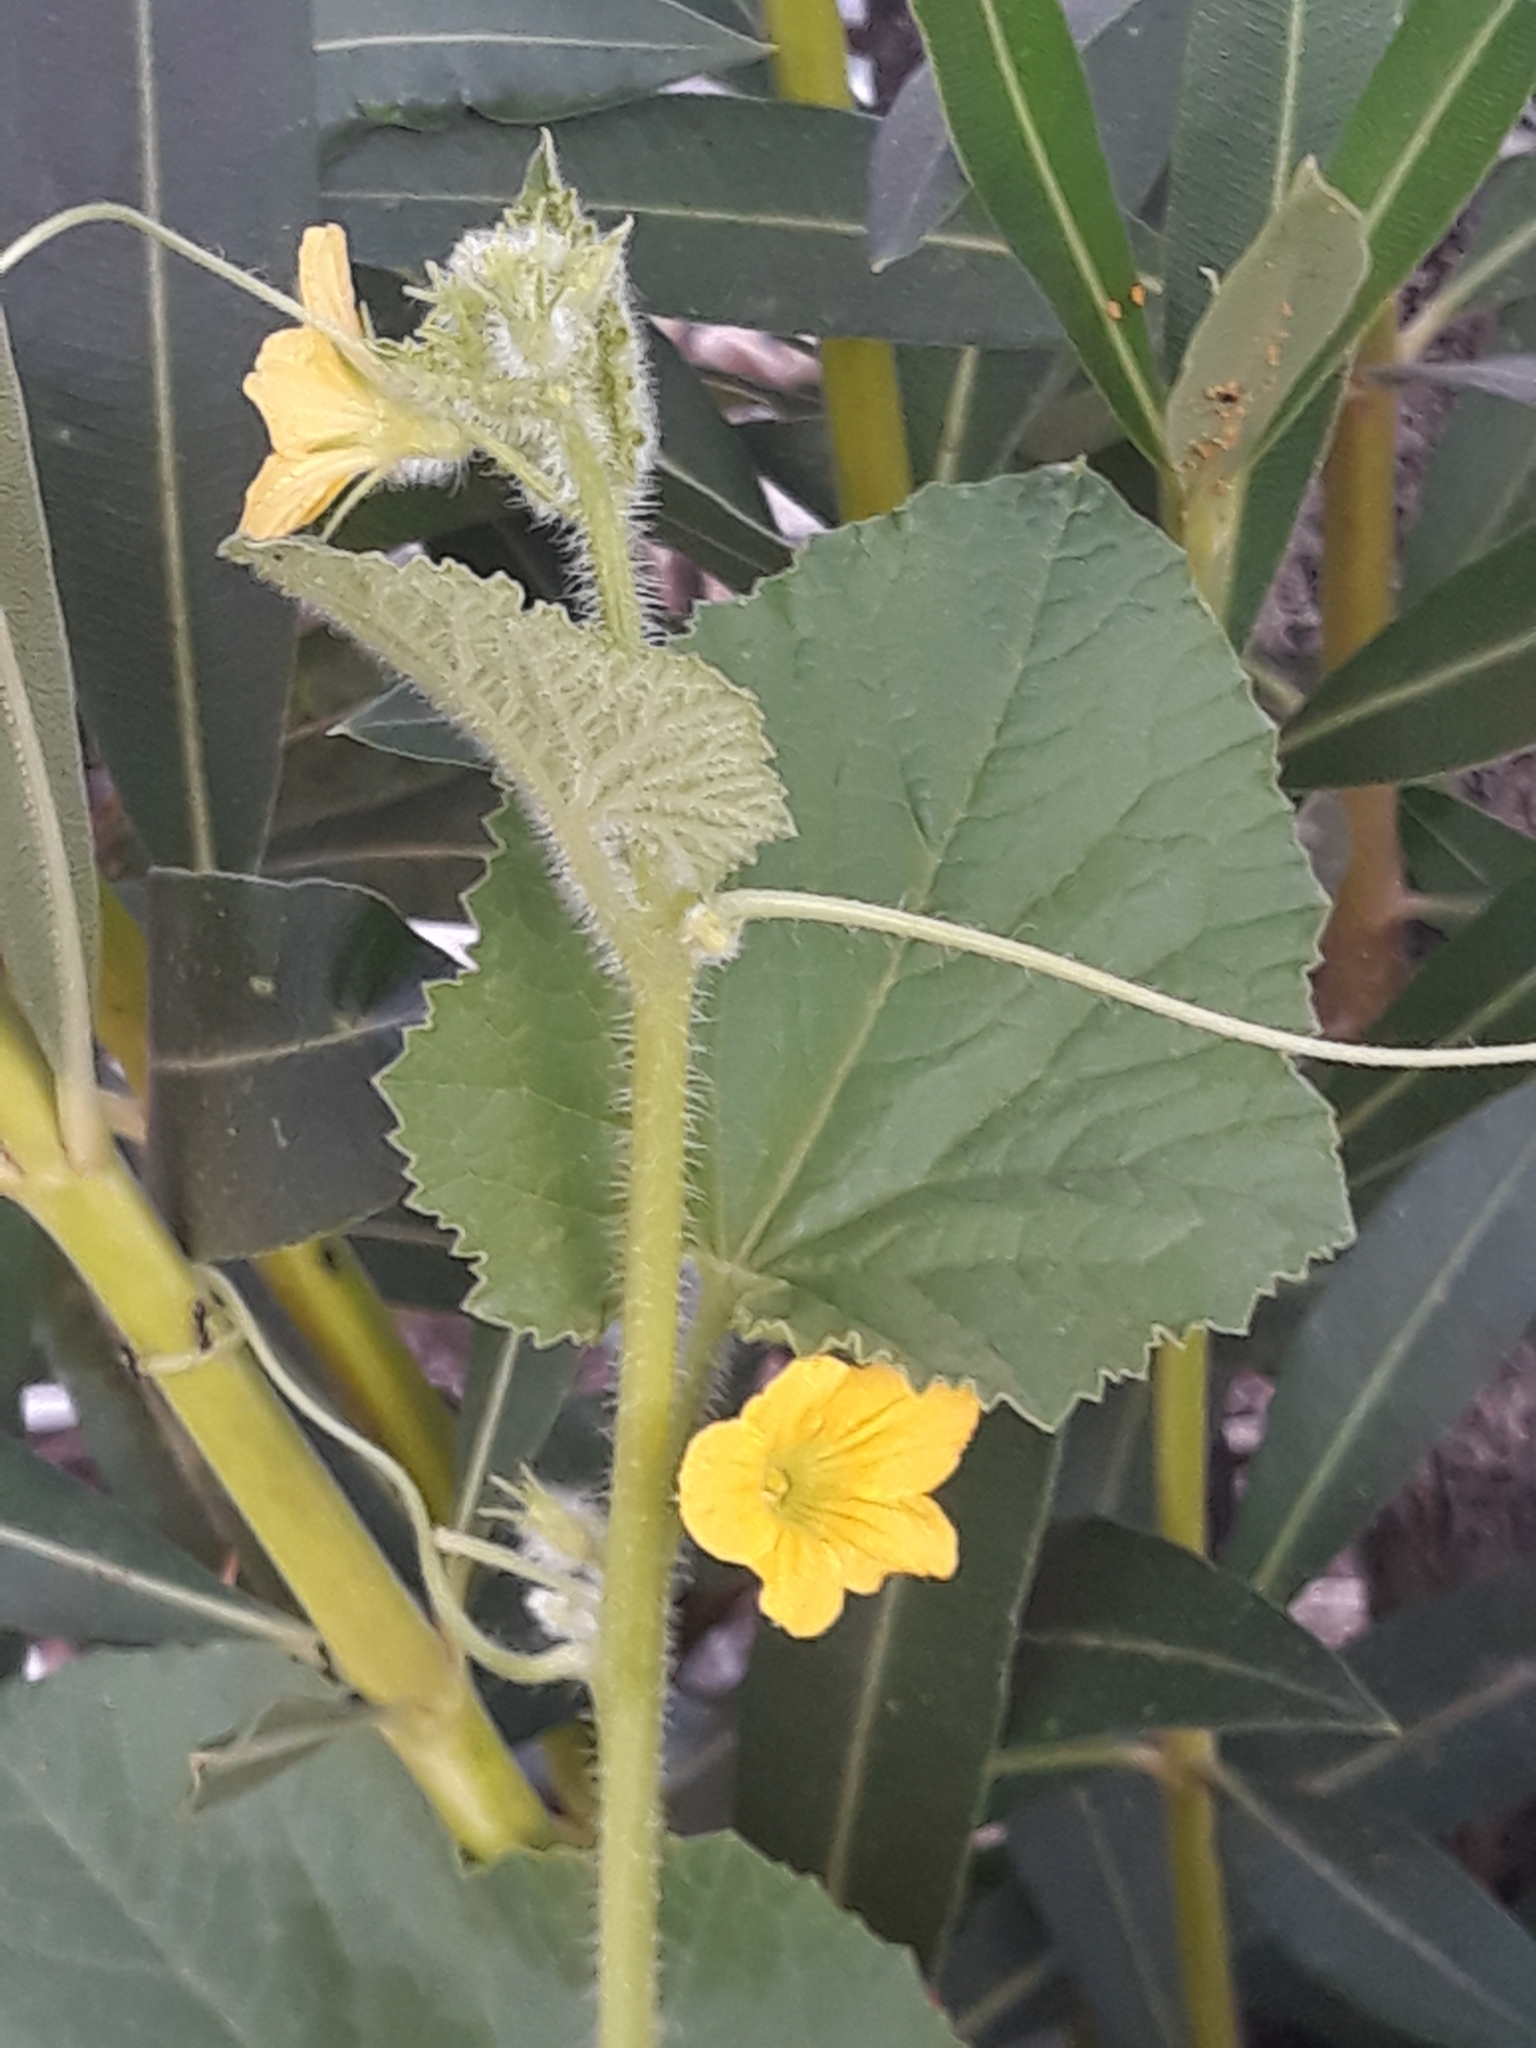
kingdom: Plantae
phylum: Tracheophyta
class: Magnoliopsida
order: Cucurbitales
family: Cucurbitaceae
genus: Cucumis
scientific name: Cucumis melo
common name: Melon
